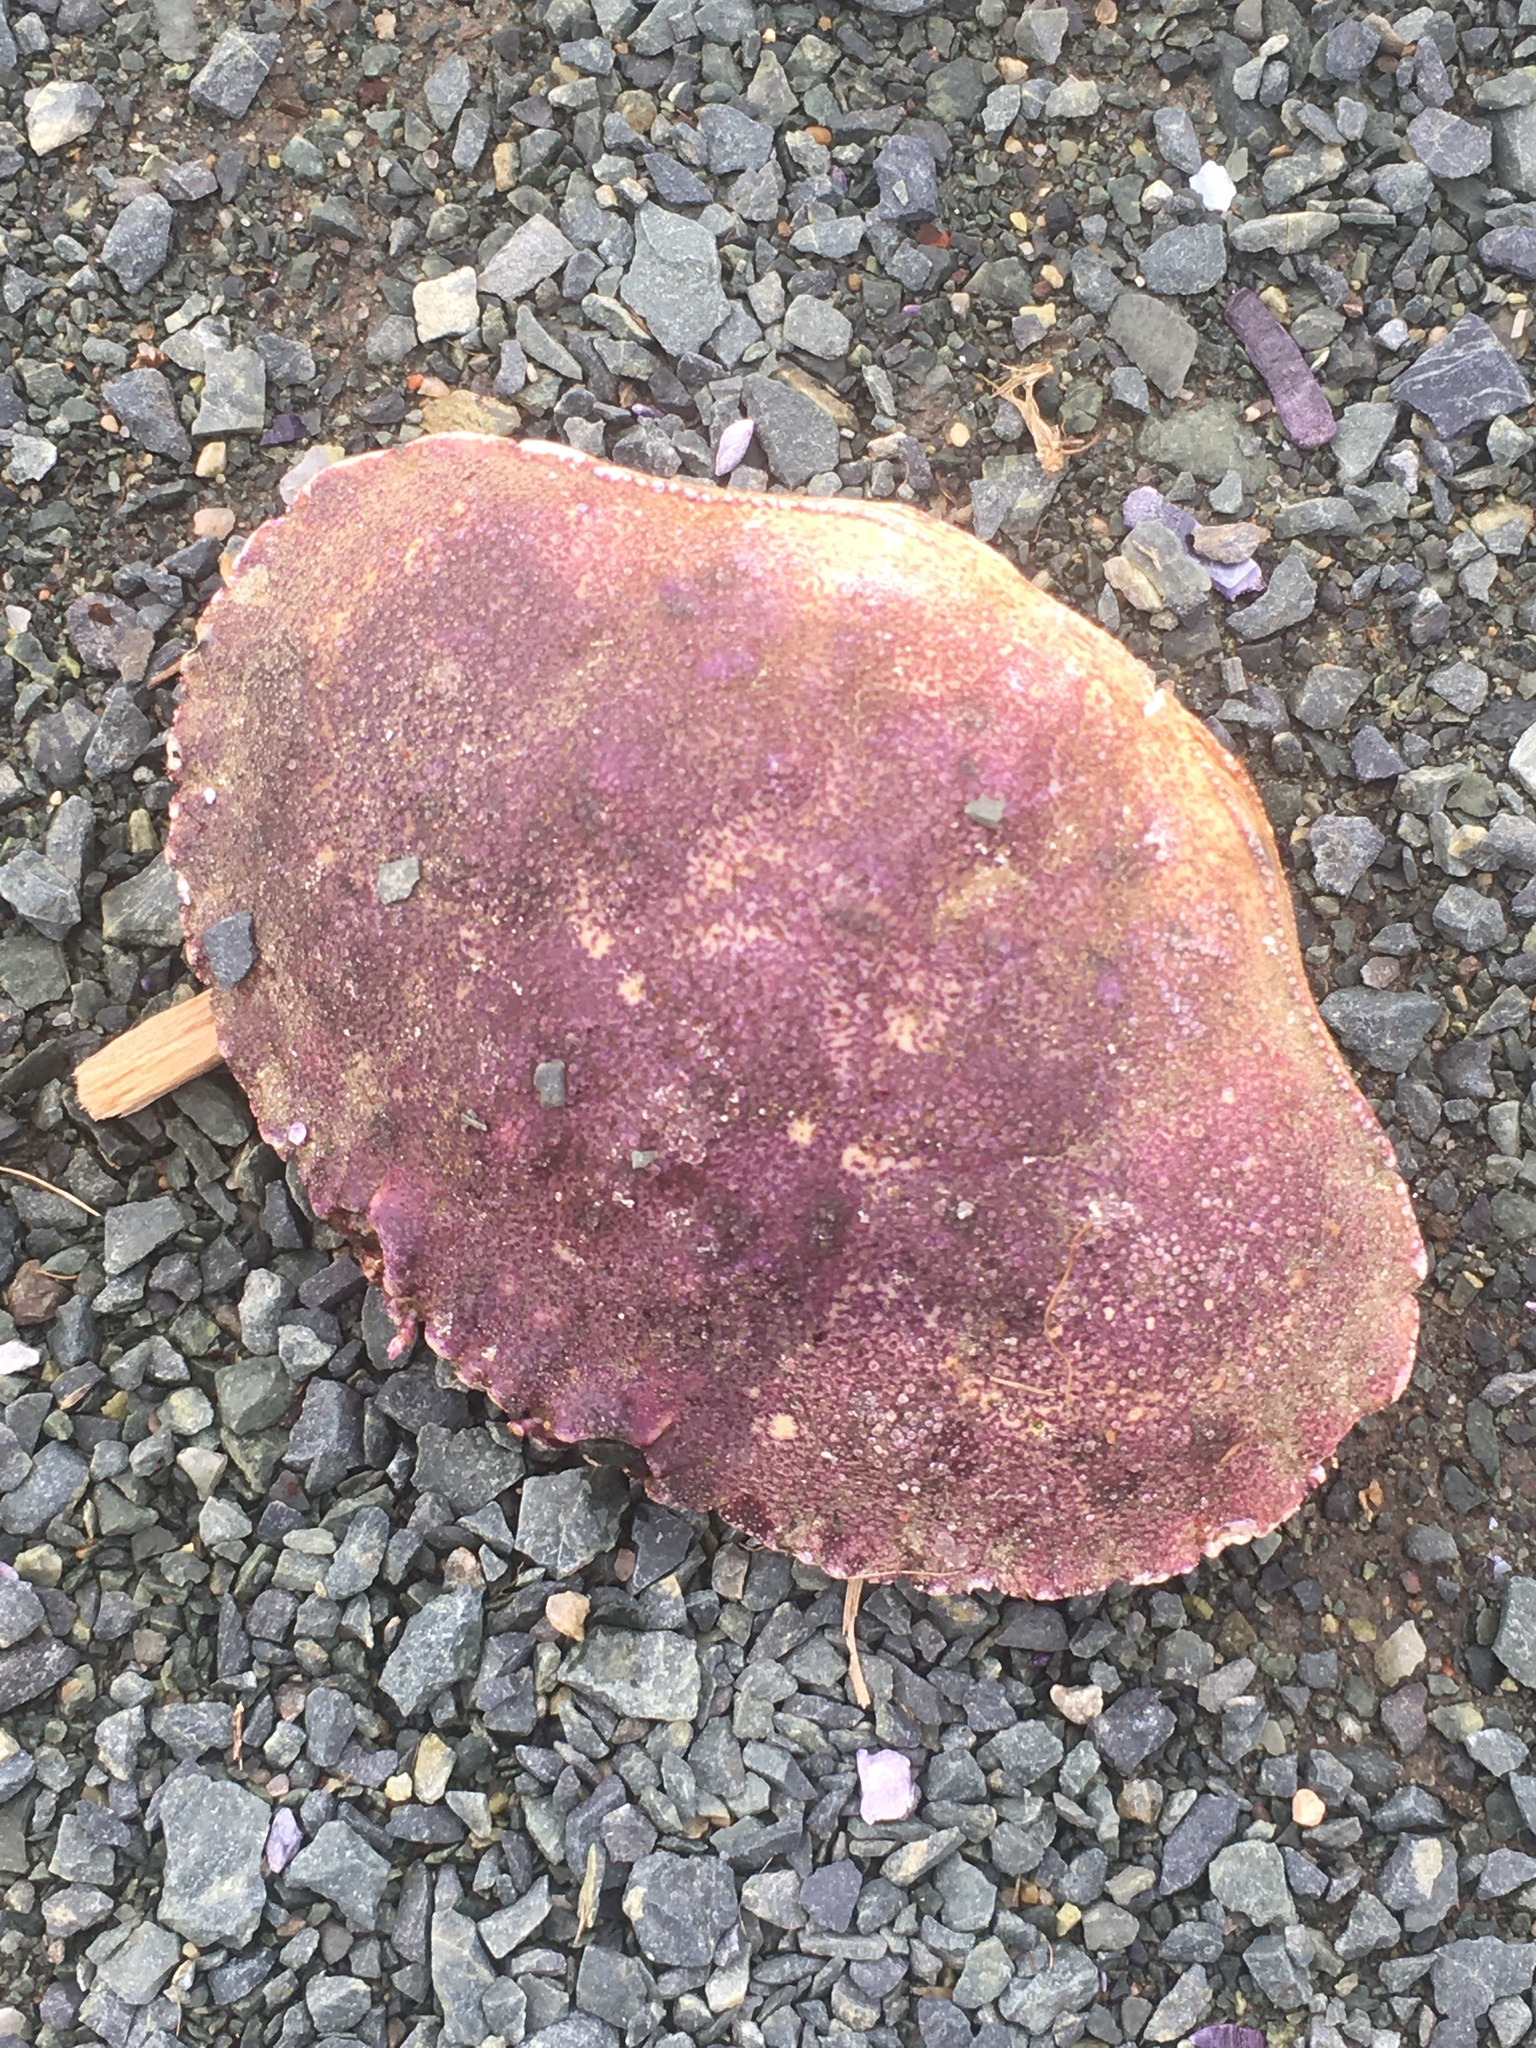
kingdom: Animalia
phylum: Arthropoda
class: Malacostraca
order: Decapoda
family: Cancridae
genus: Cancer
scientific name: Cancer borealis
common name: Jonah crab
